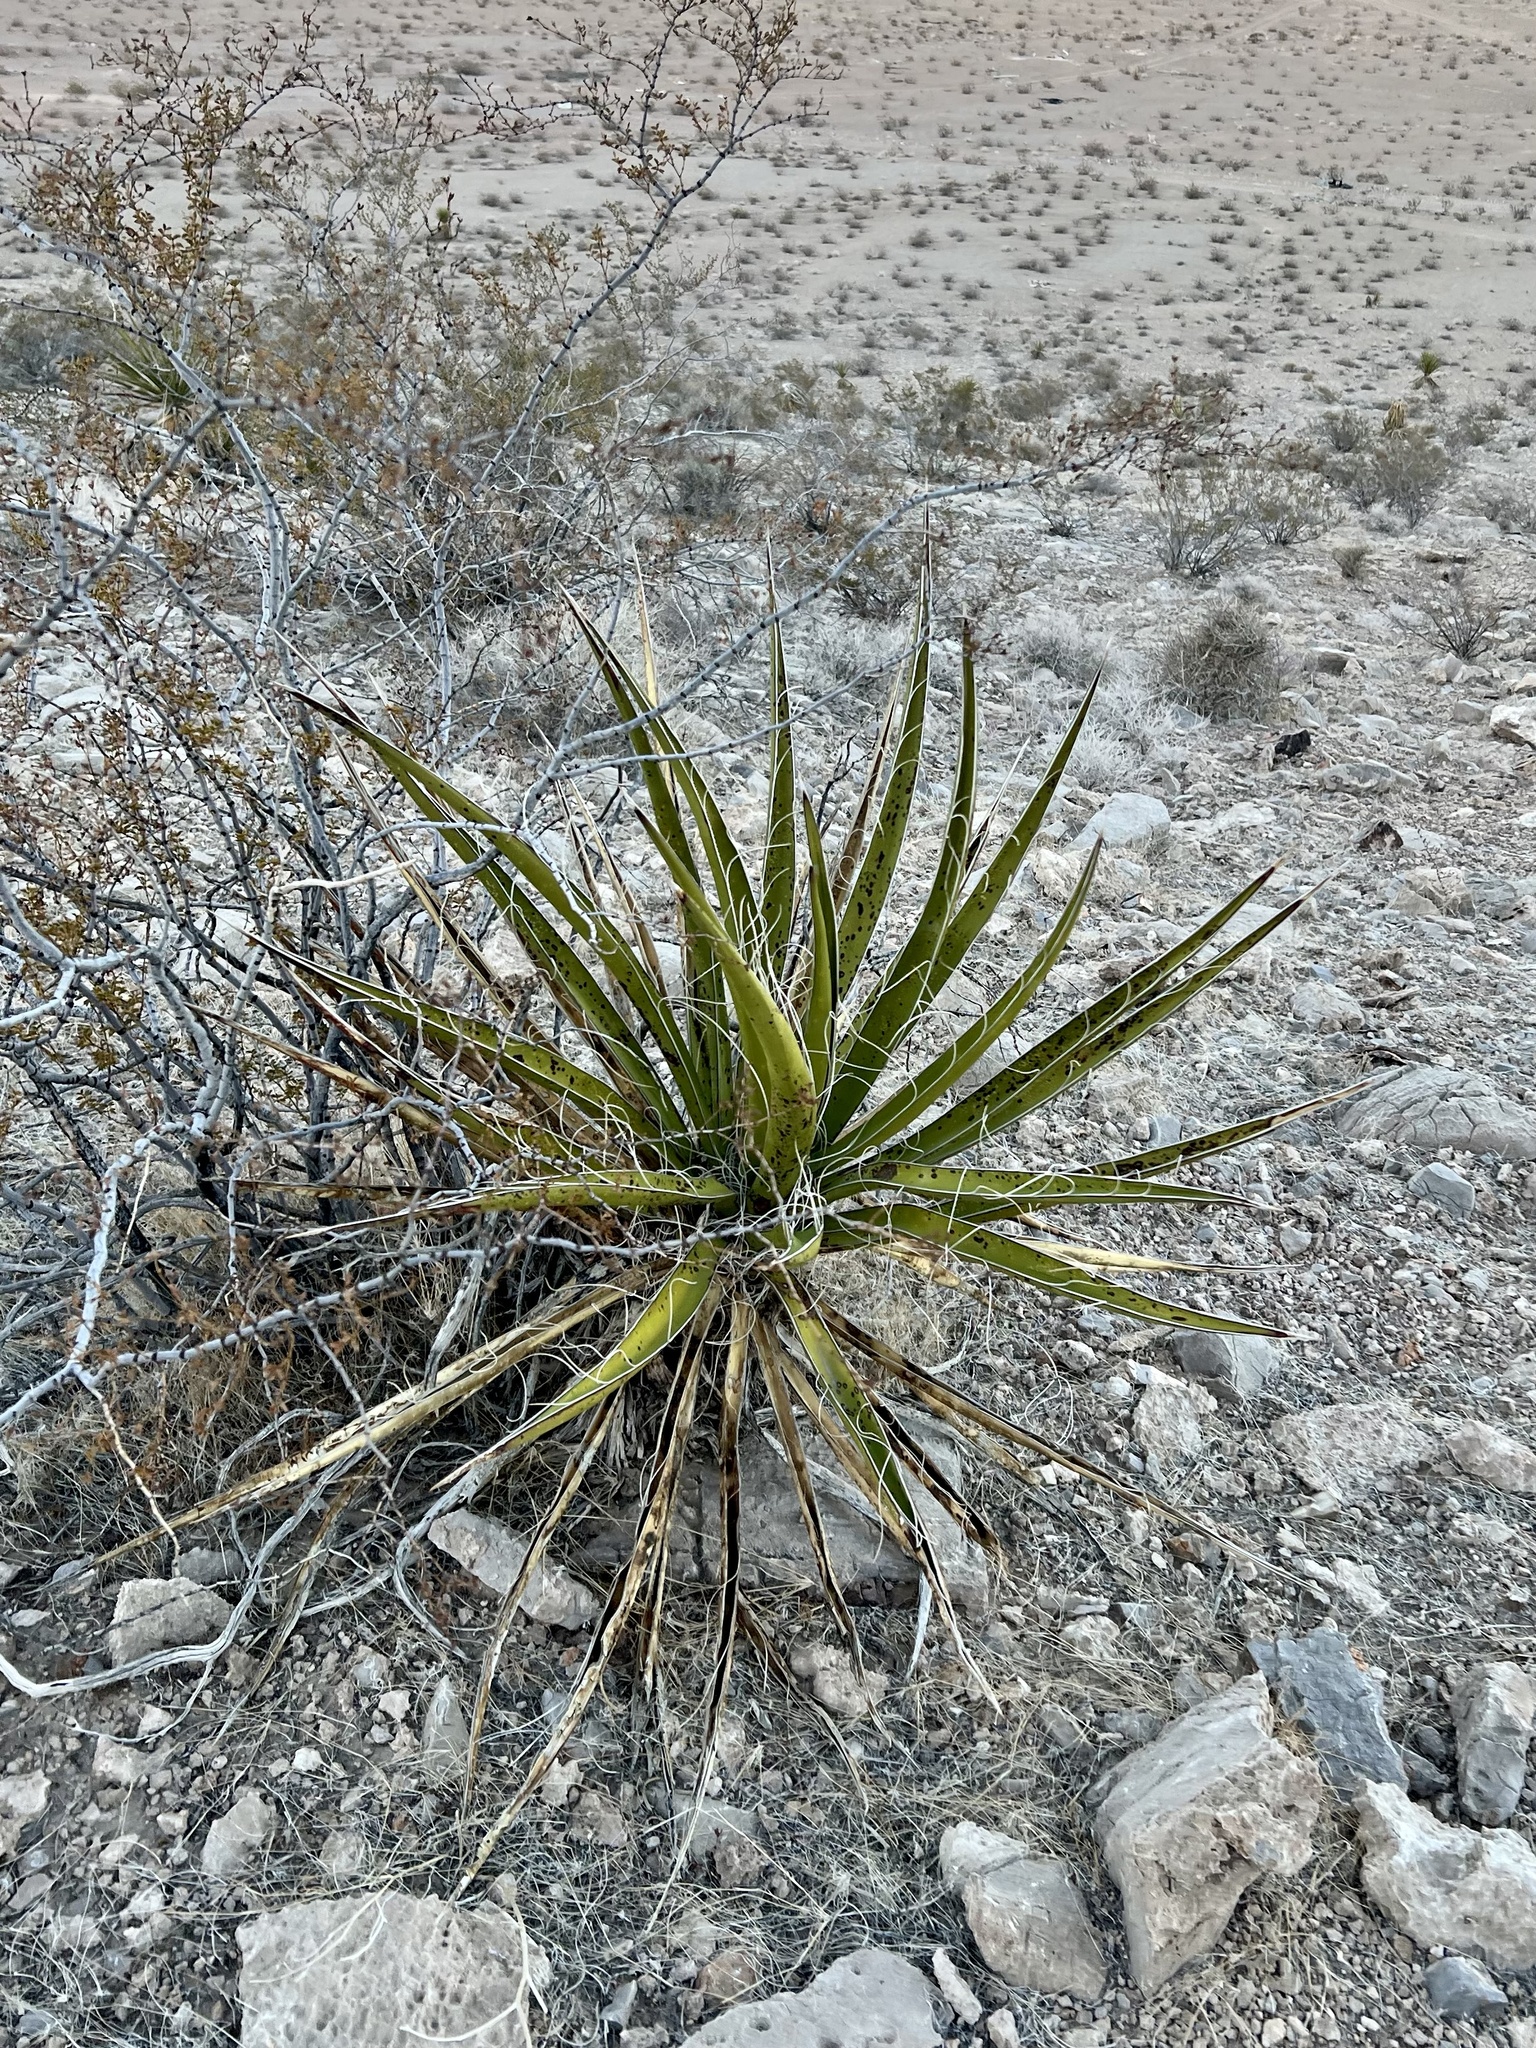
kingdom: Plantae
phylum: Tracheophyta
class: Liliopsida
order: Asparagales
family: Asparagaceae
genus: Yucca
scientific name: Yucca schidigera
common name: Mojave yucca
